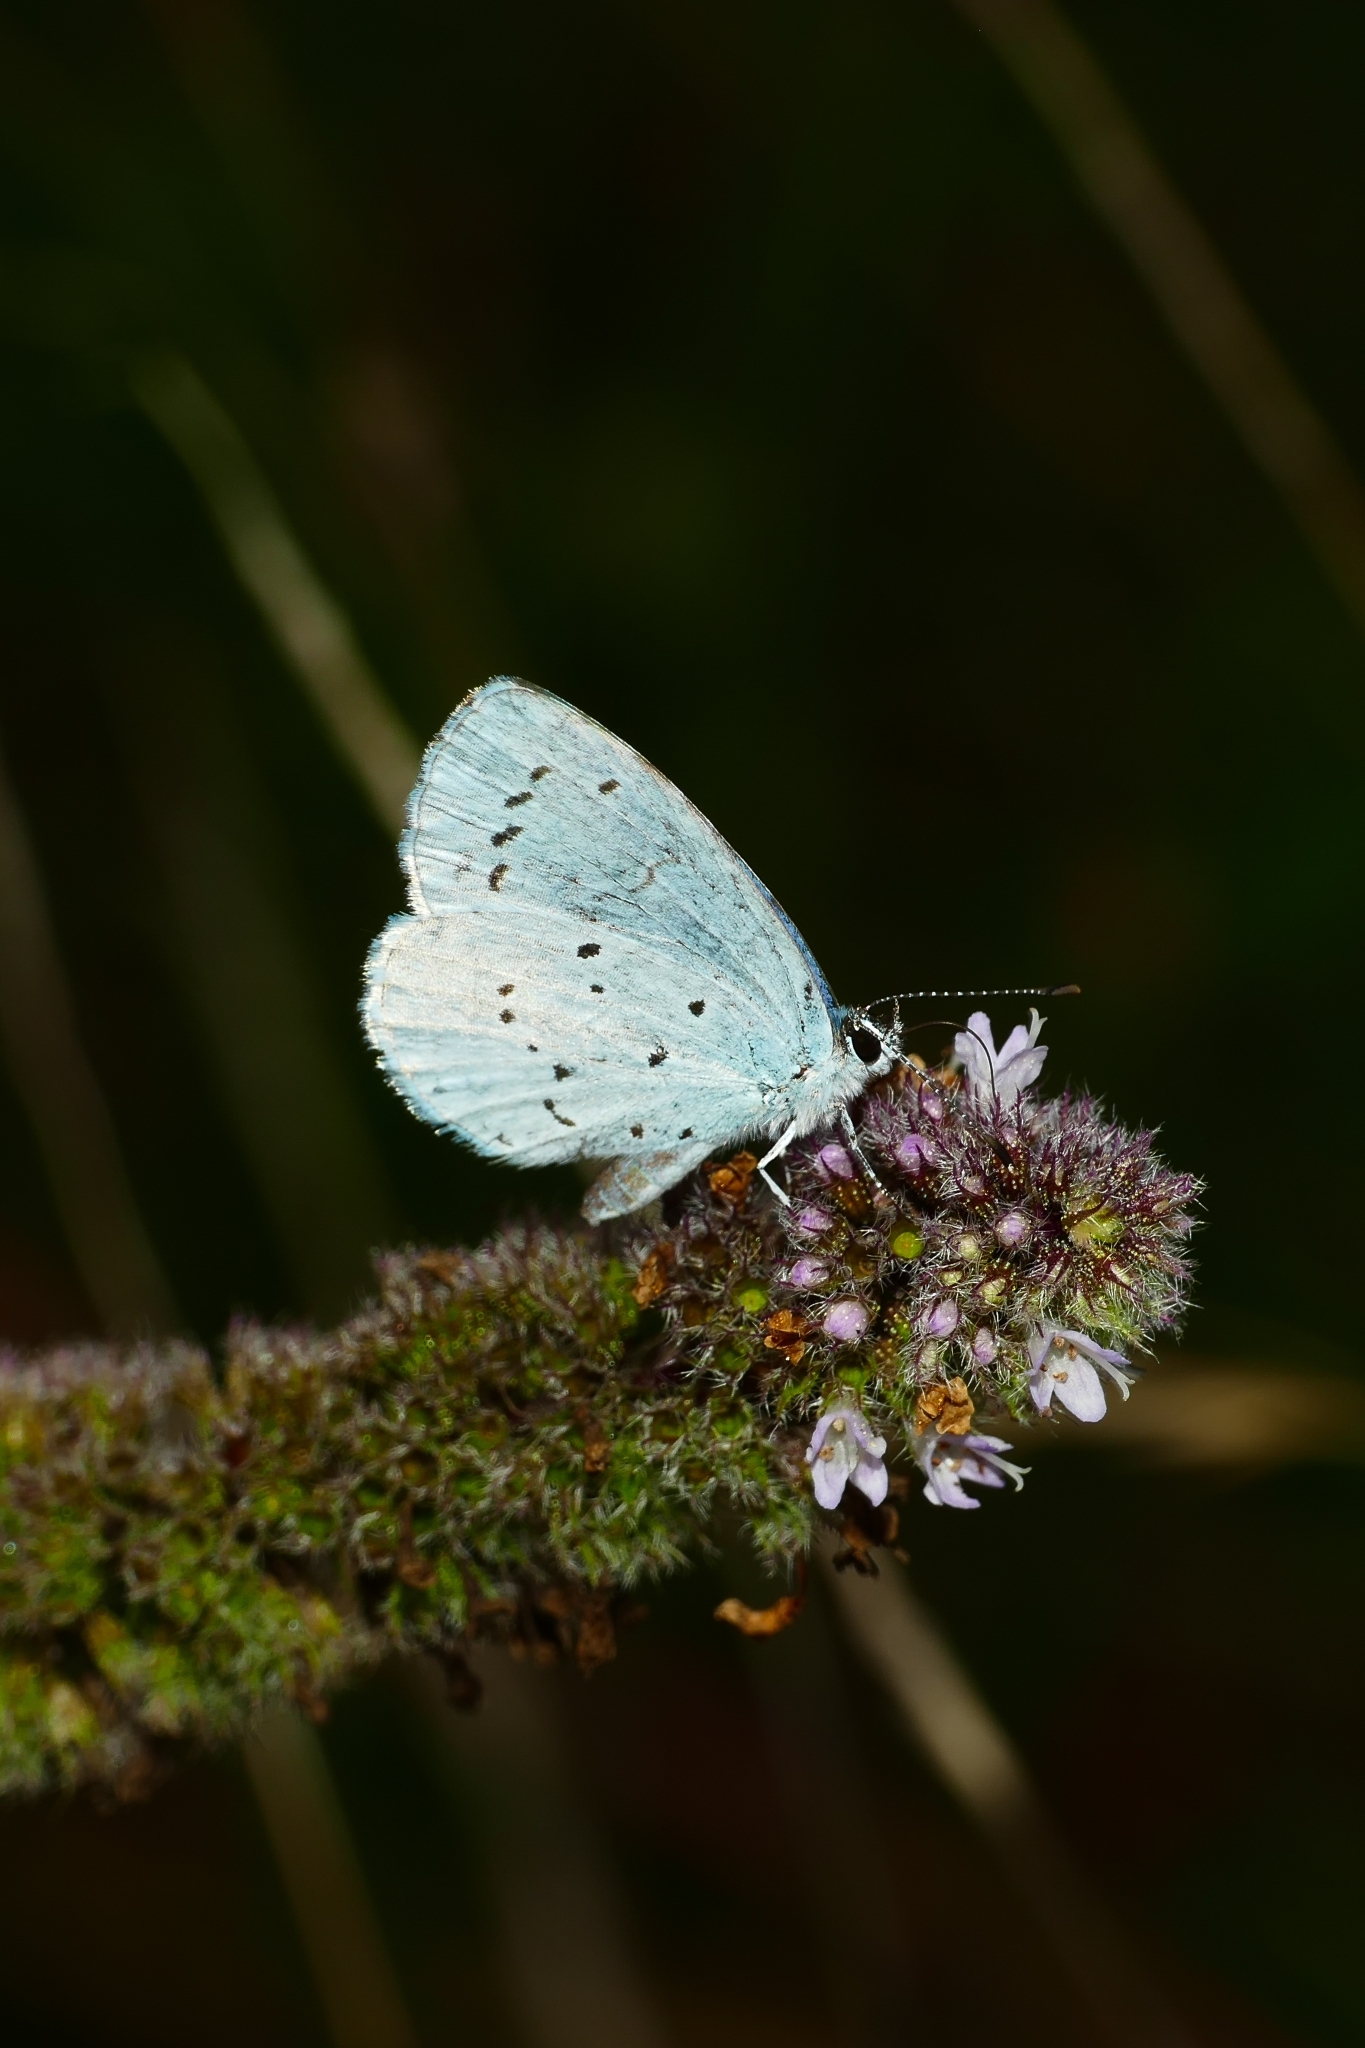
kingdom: Animalia
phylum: Arthropoda
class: Insecta
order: Lepidoptera
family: Lycaenidae
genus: Celastrina
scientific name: Celastrina argiolus
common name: Holly blue
